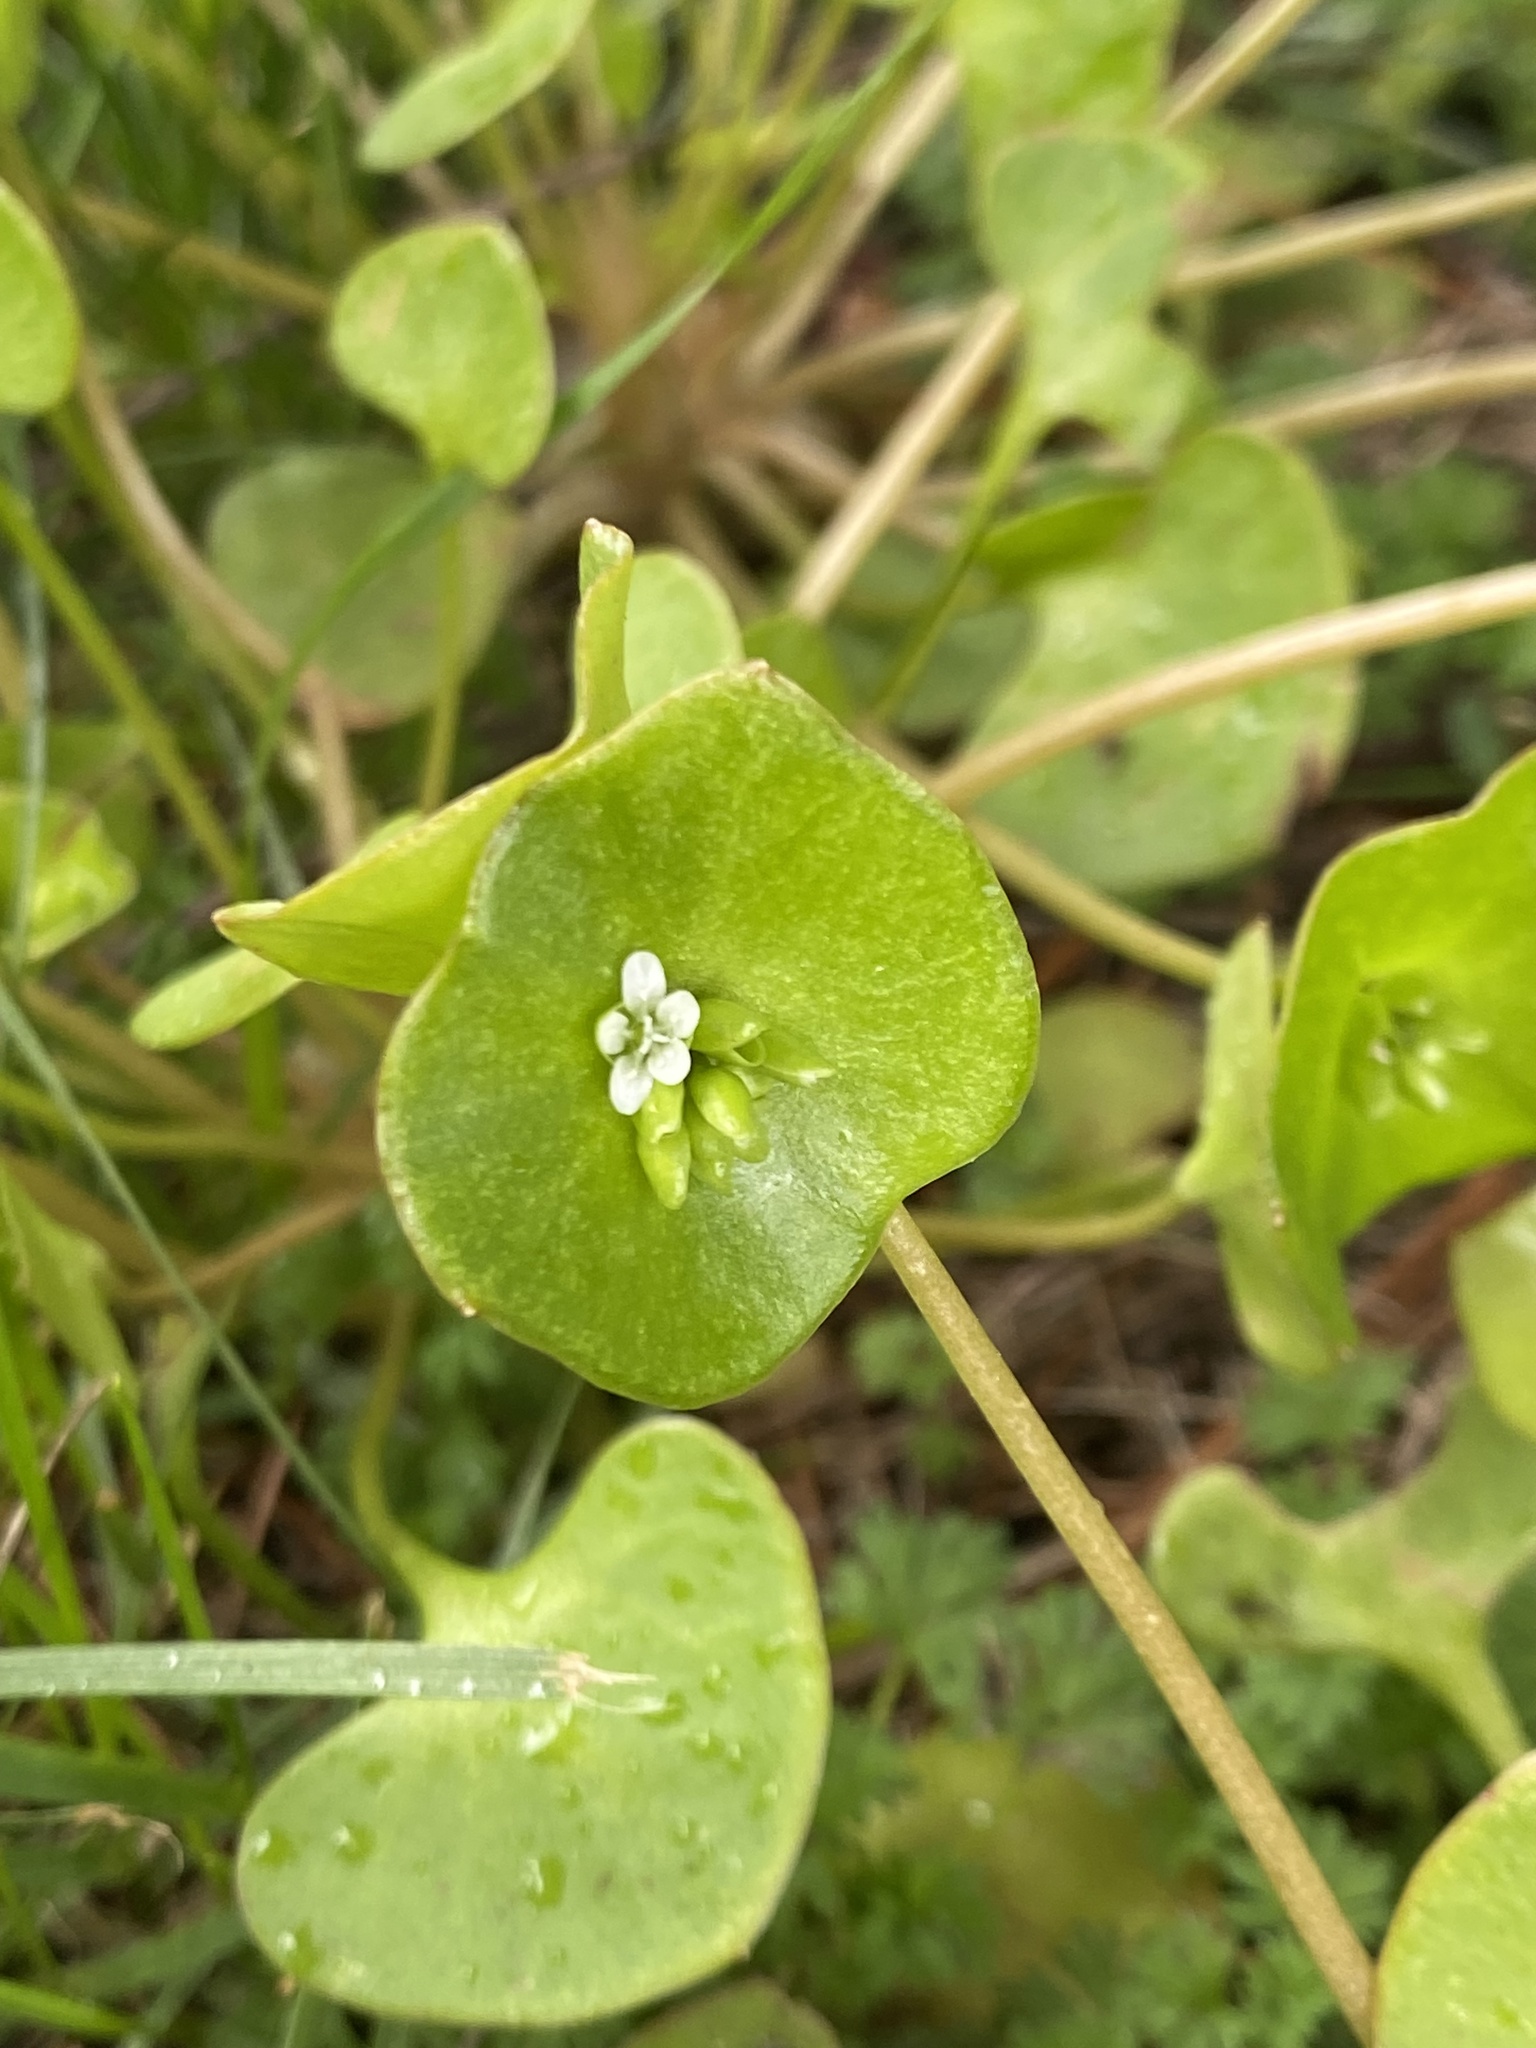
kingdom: Plantae
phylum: Tracheophyta
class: Magnoliopsida
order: Caryophyllales
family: Montiaceae
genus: Claytonia
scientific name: Claytonia perfoliata
